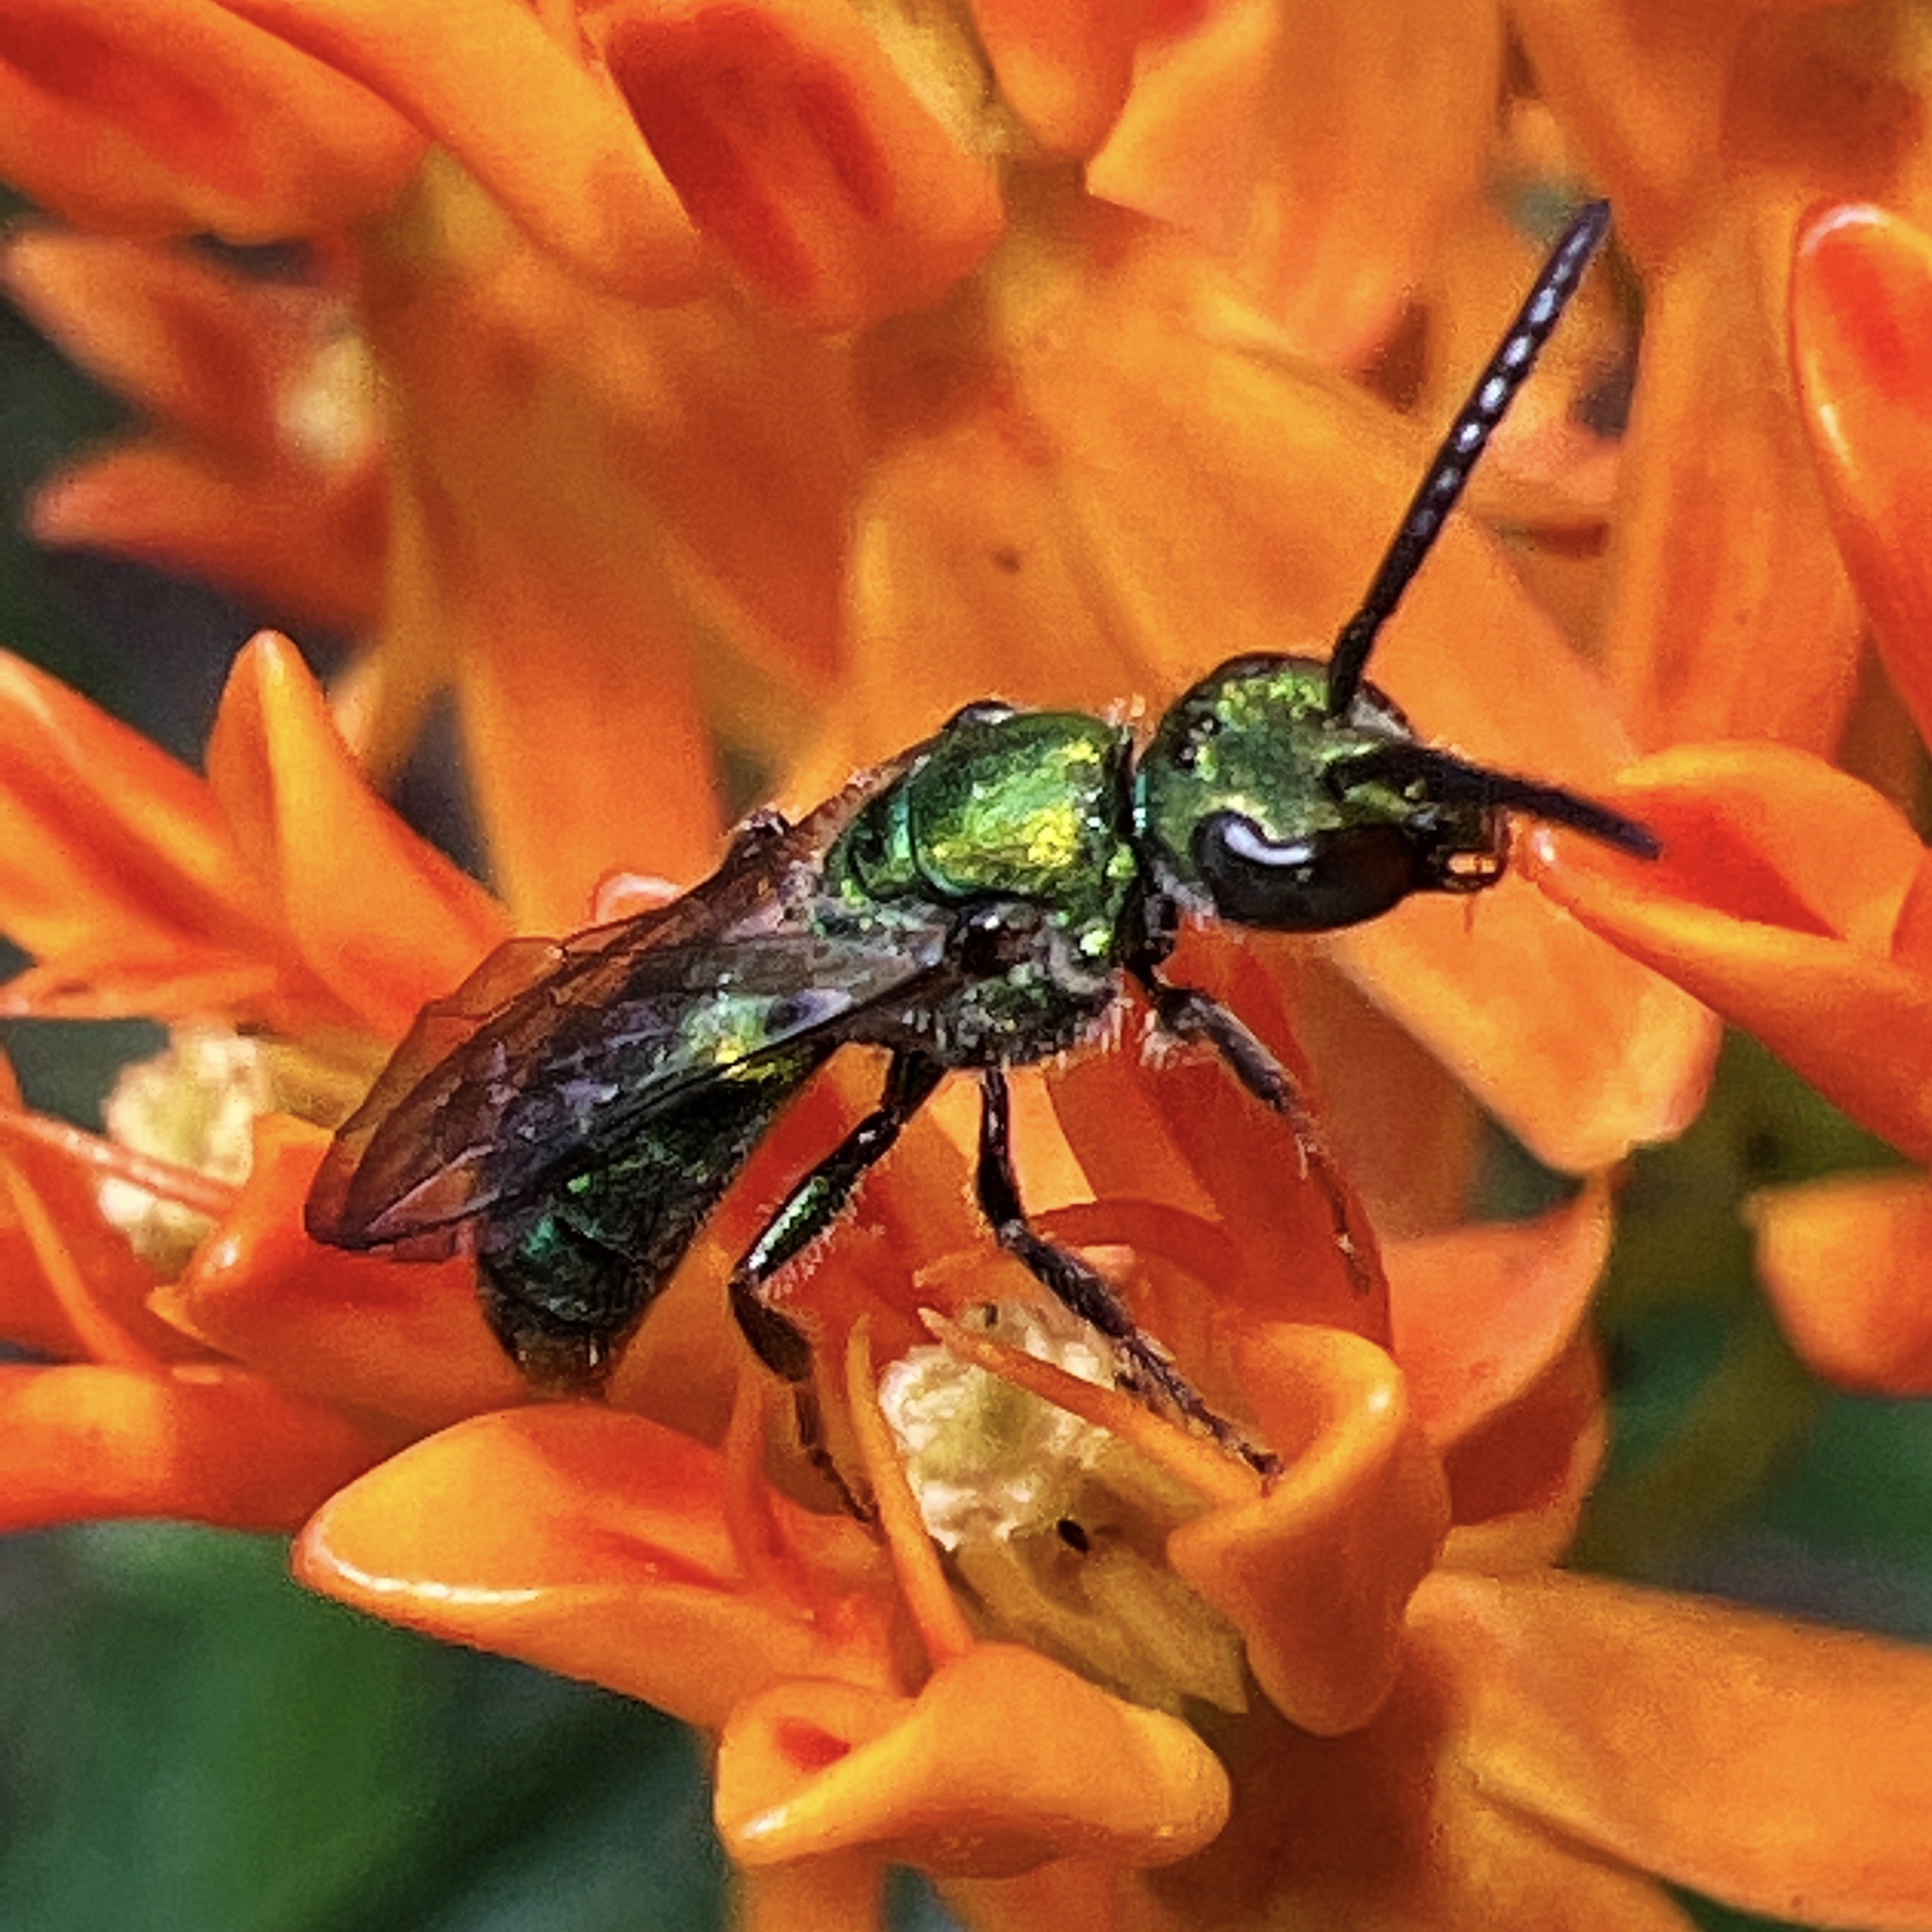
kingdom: Animalia
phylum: Arthropoda
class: Insecta
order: Hymenoptera
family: Halictidae
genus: Augochlora
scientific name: Augochlora pura
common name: Pure green sweat bee
